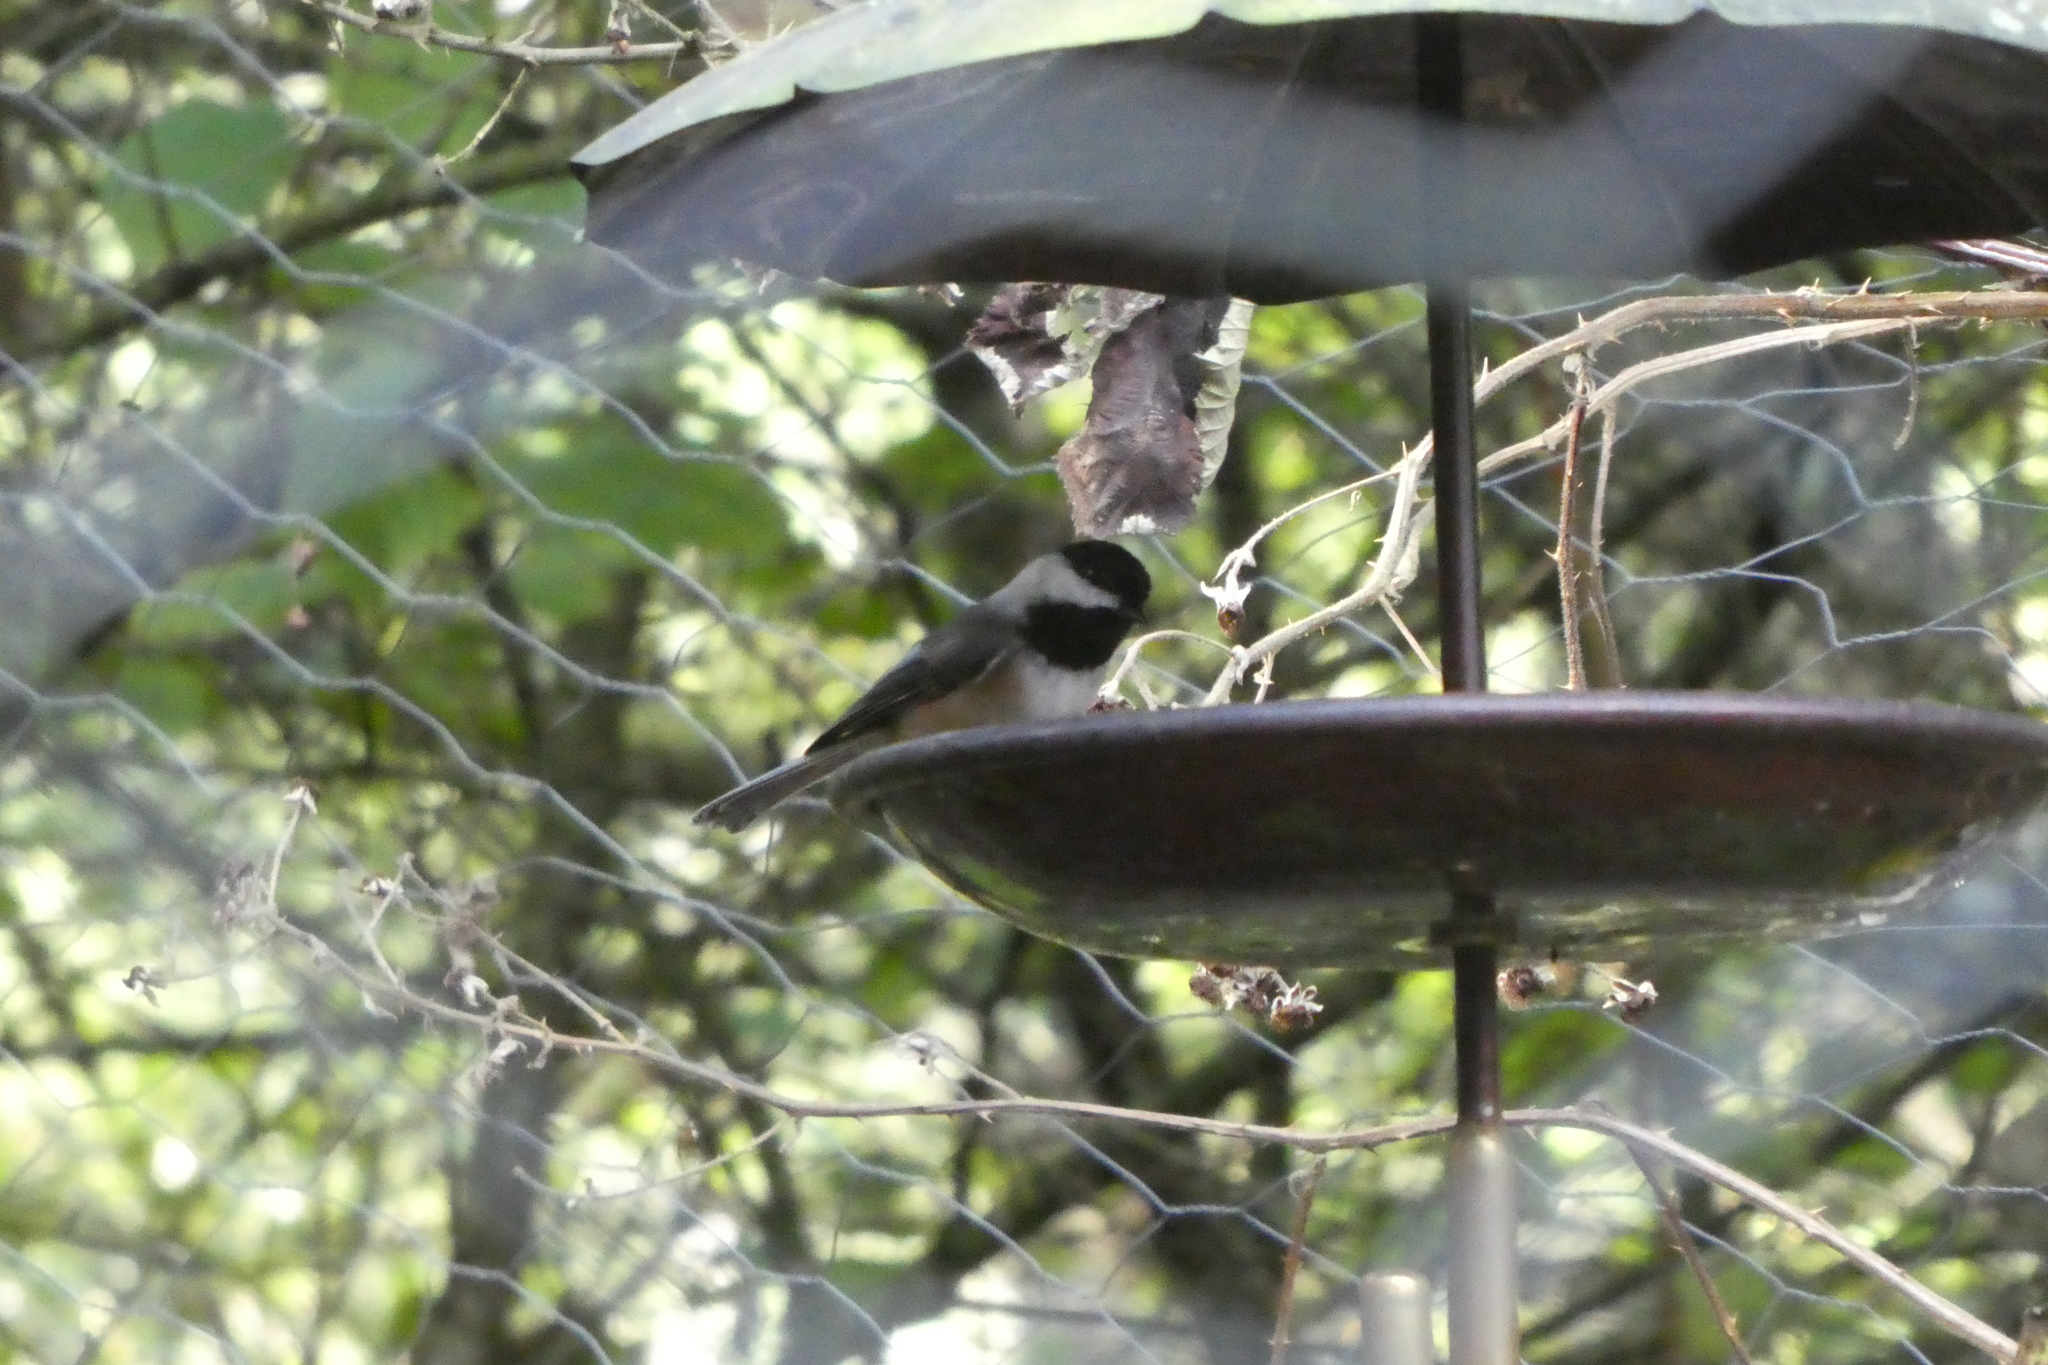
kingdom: Animalia
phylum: Chordata
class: Aves
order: Passeriformes
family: Paridae
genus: Poecile
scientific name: Poecile atricapillus
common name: Black-capped chickadee
